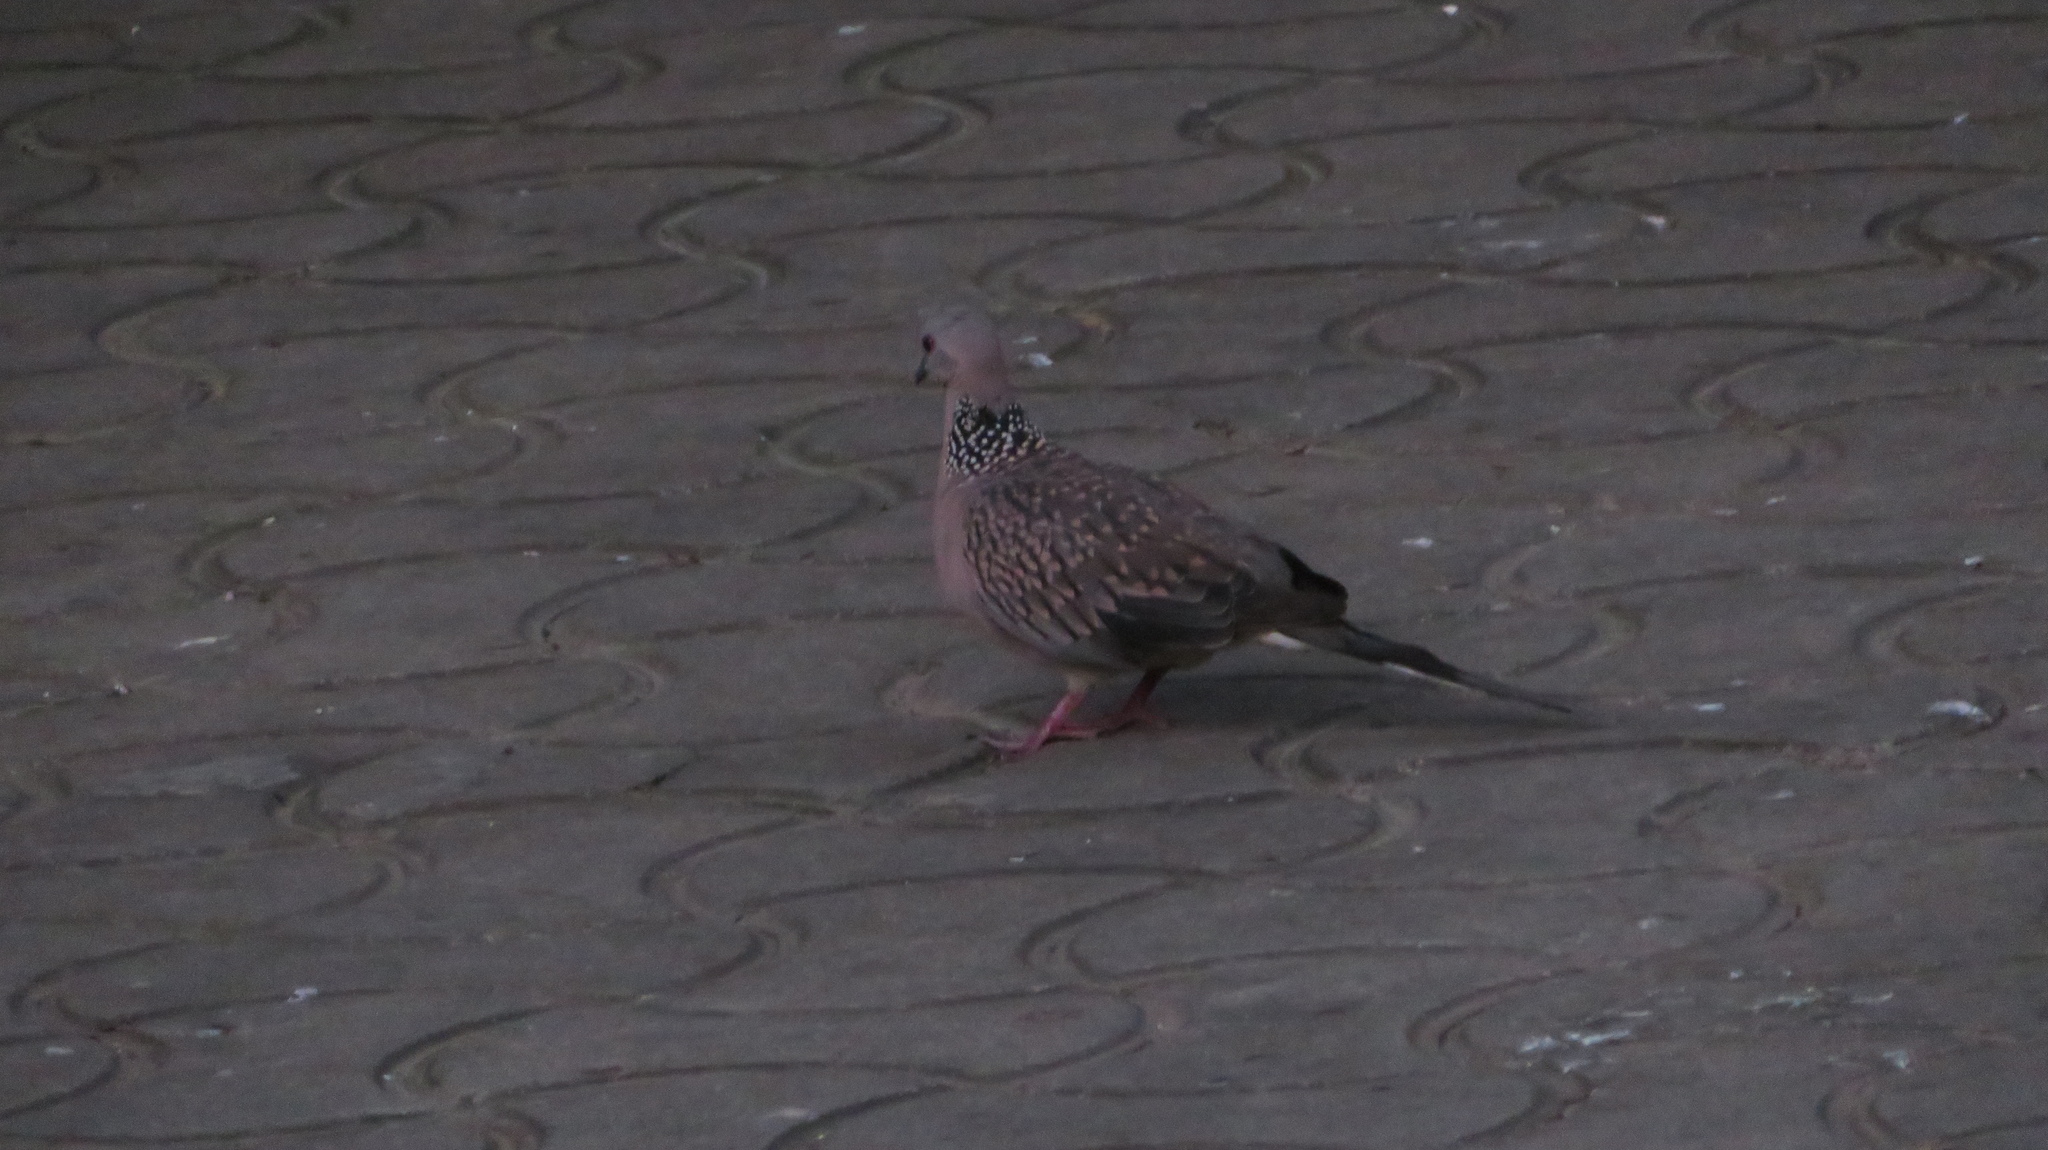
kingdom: Animalia
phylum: Chordata
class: Aves
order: Columbiformes
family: Columbidae
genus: Spilopelia
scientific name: Spilopelia chinensis
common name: Spotted dove
